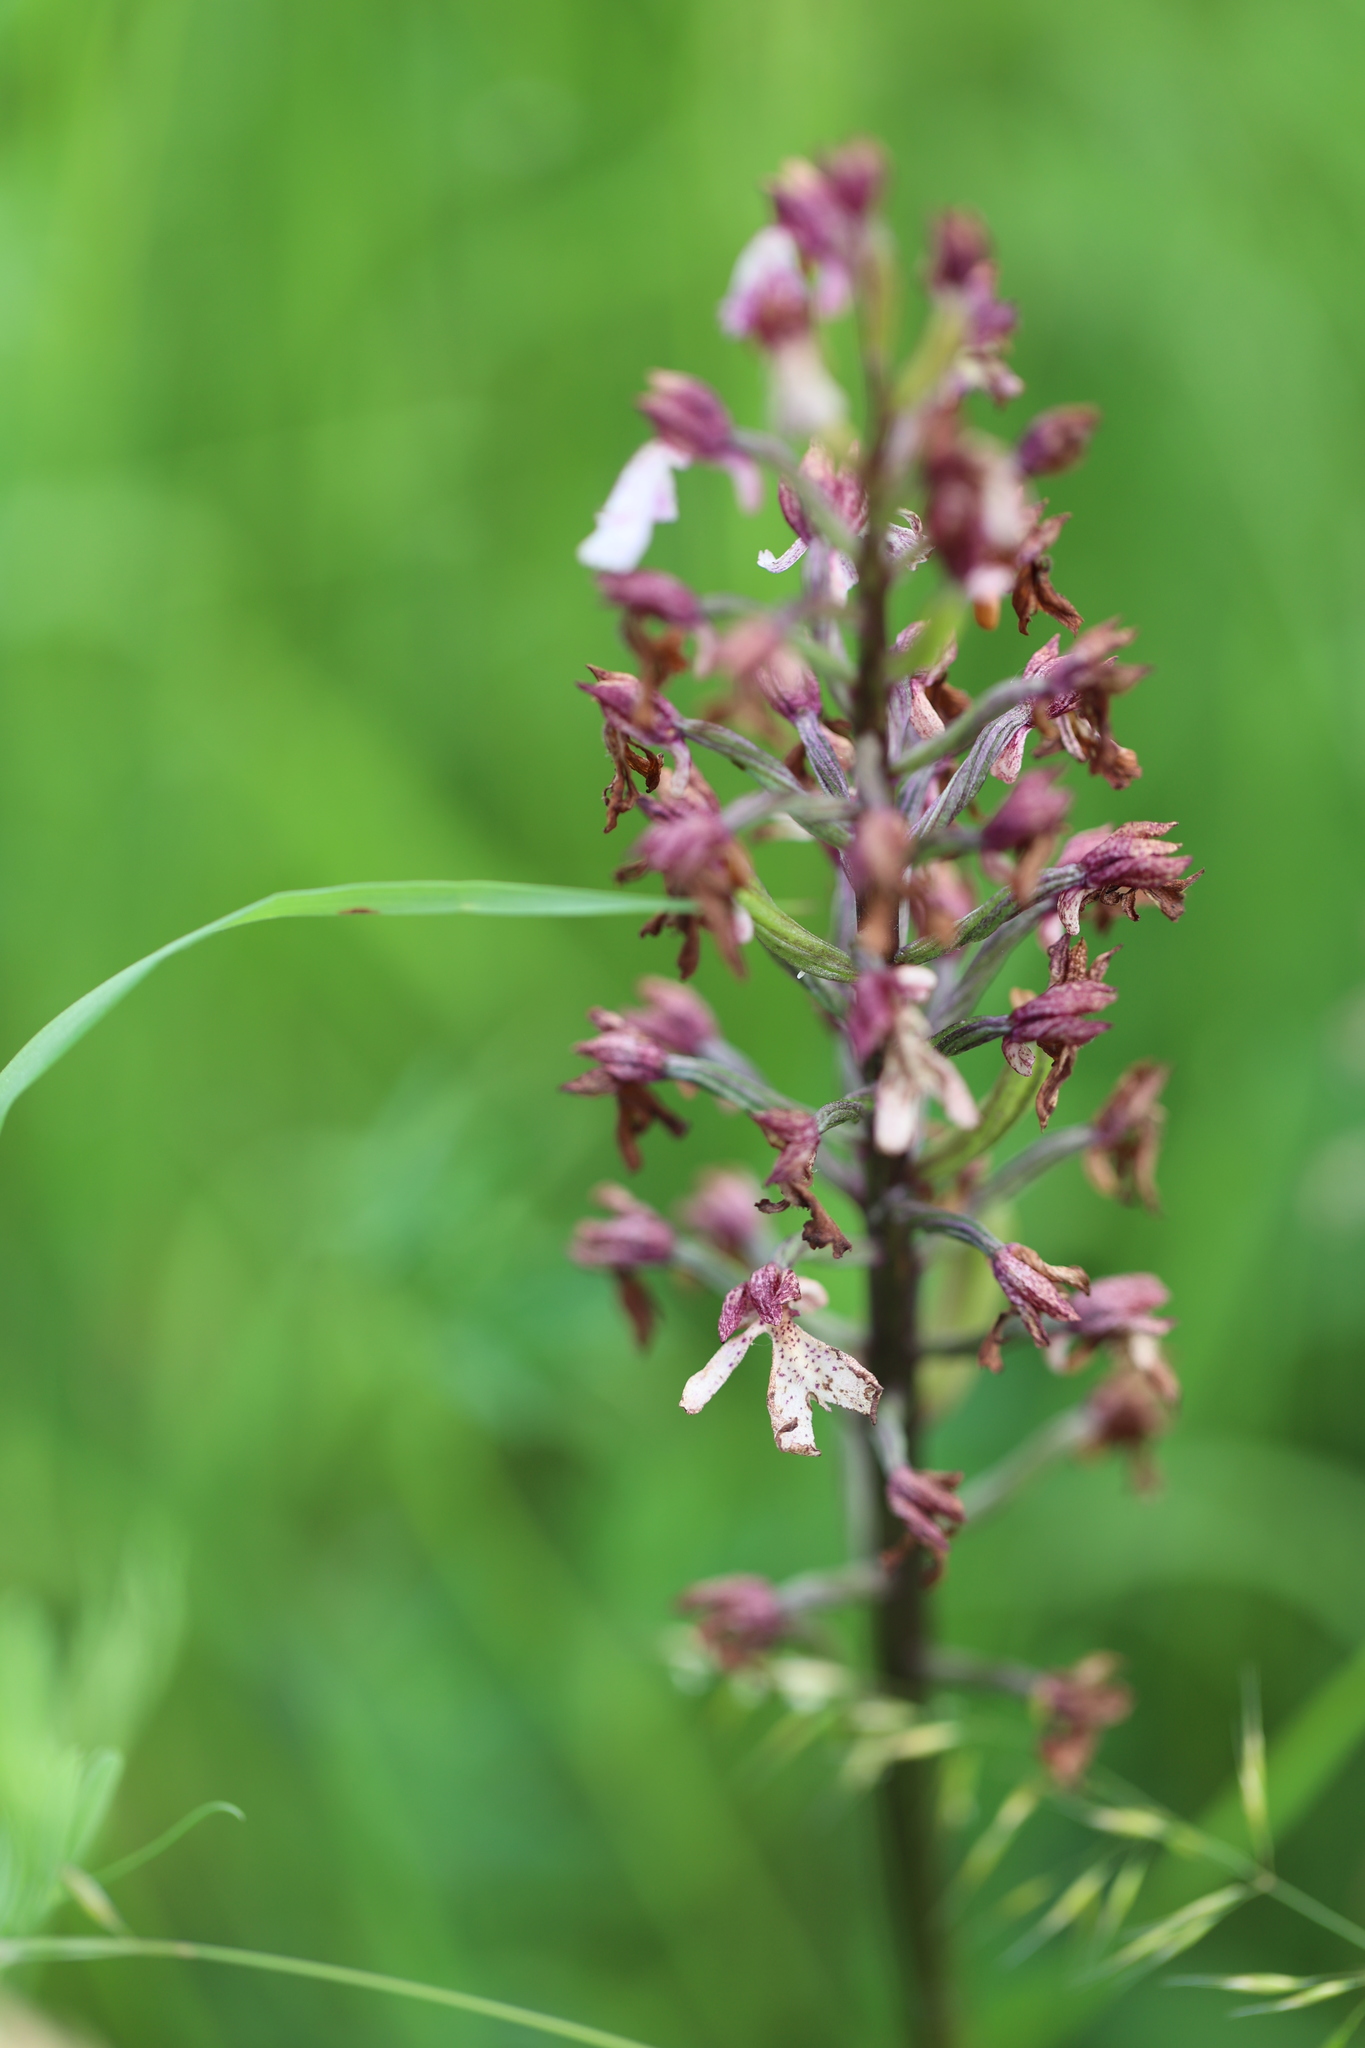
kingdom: Plantae
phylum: Tracheophyta
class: Liliopsida
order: Asparagales
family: Orchidaceae
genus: Orchis
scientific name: Orchis purpurea
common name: Lady orchid
